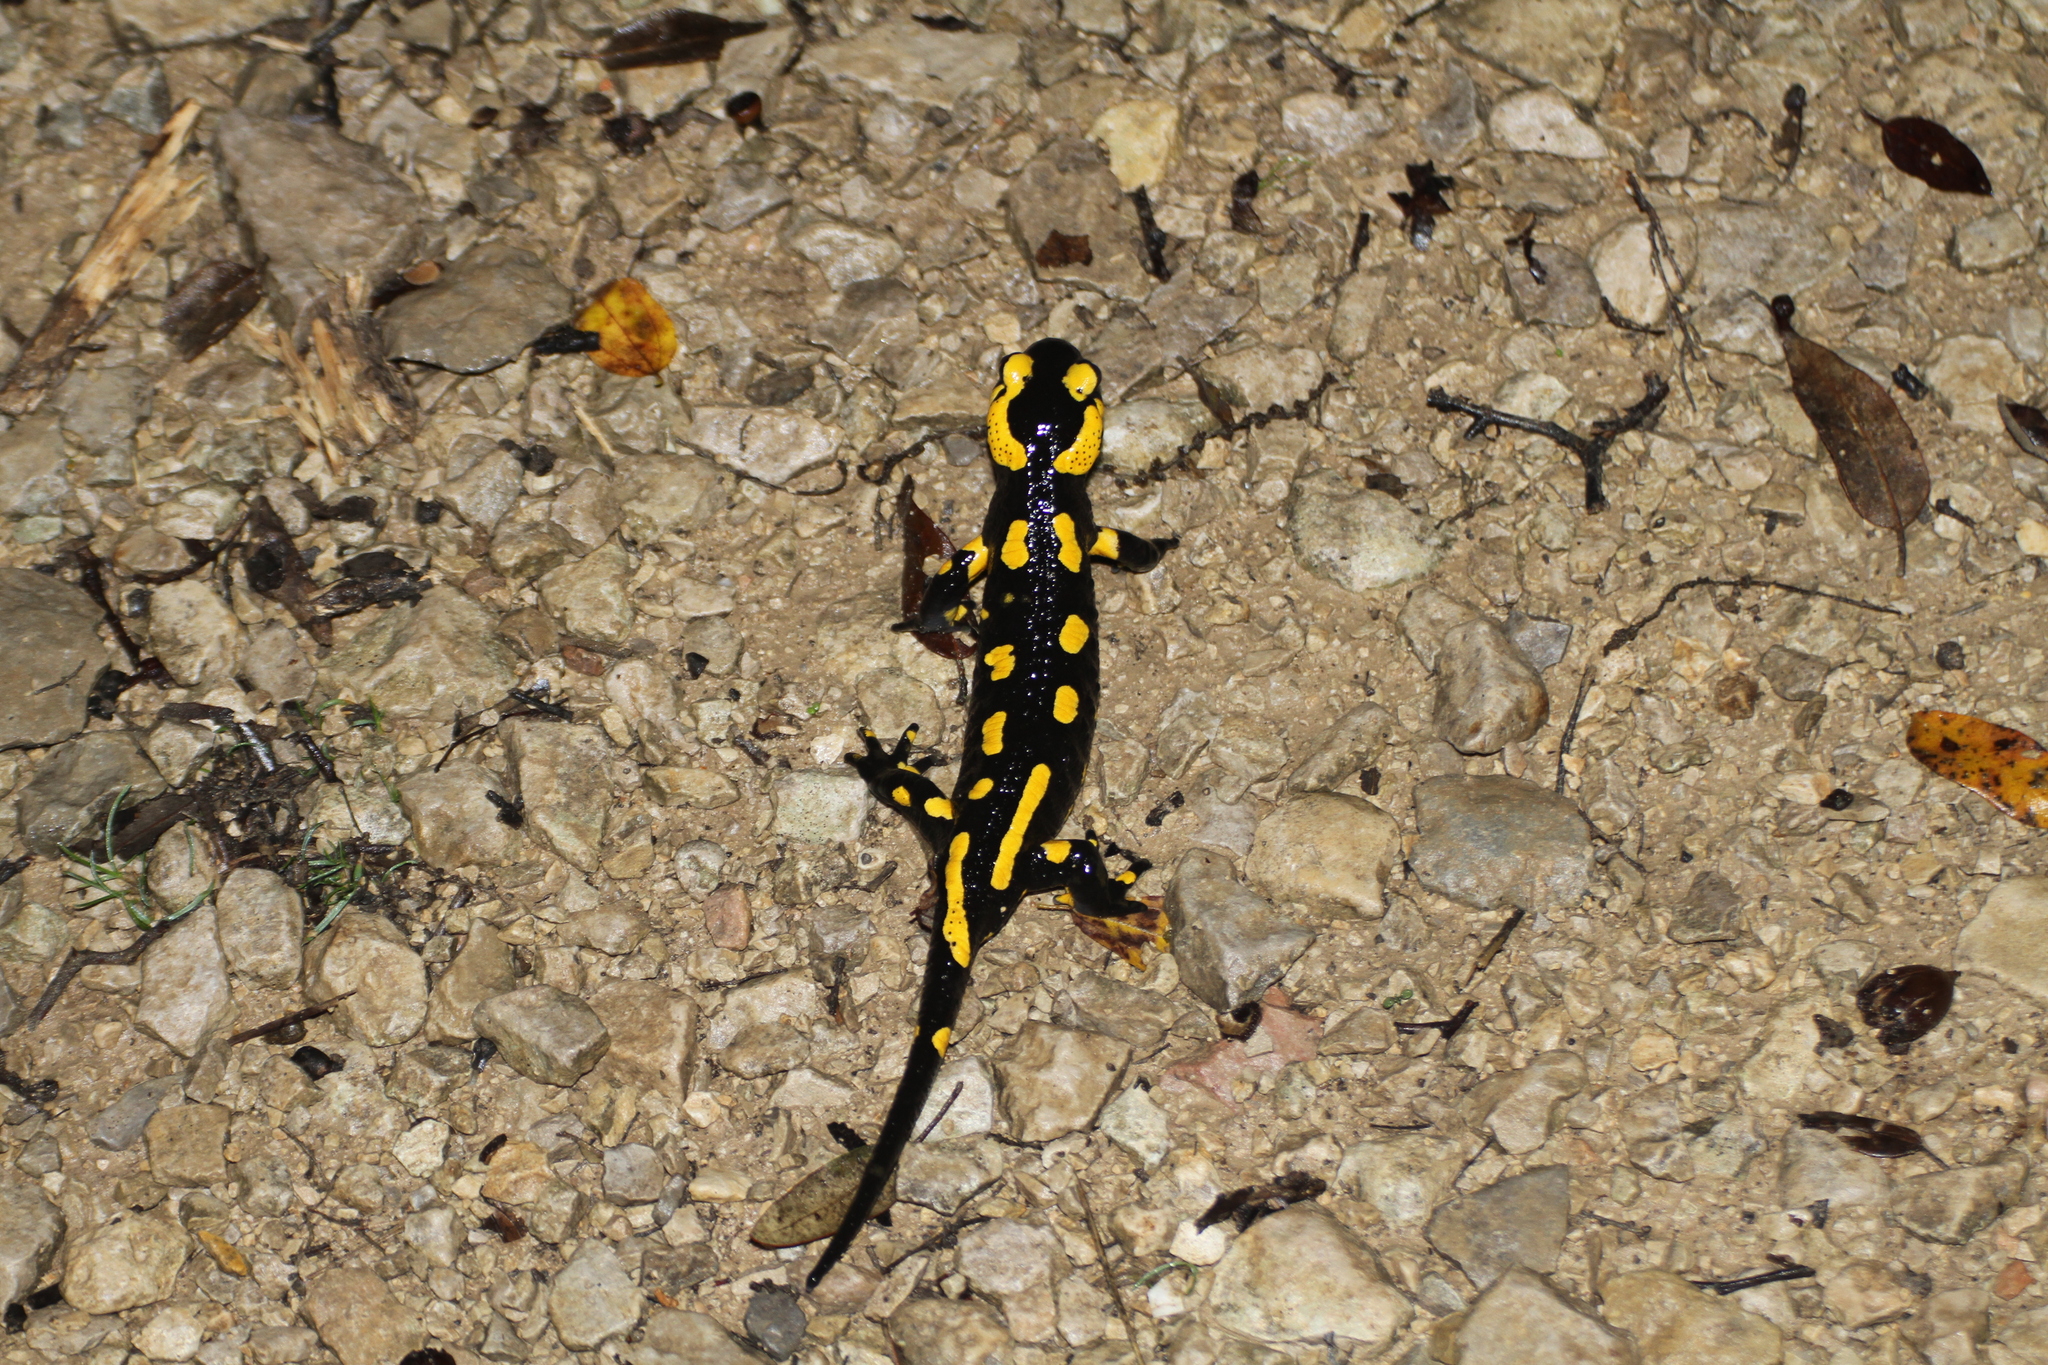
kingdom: Animalia
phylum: Chordata
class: Amphibia
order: Caudata
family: Salamandridae
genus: Salamandra
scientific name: Salamandra salamandra
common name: Fire salamander
